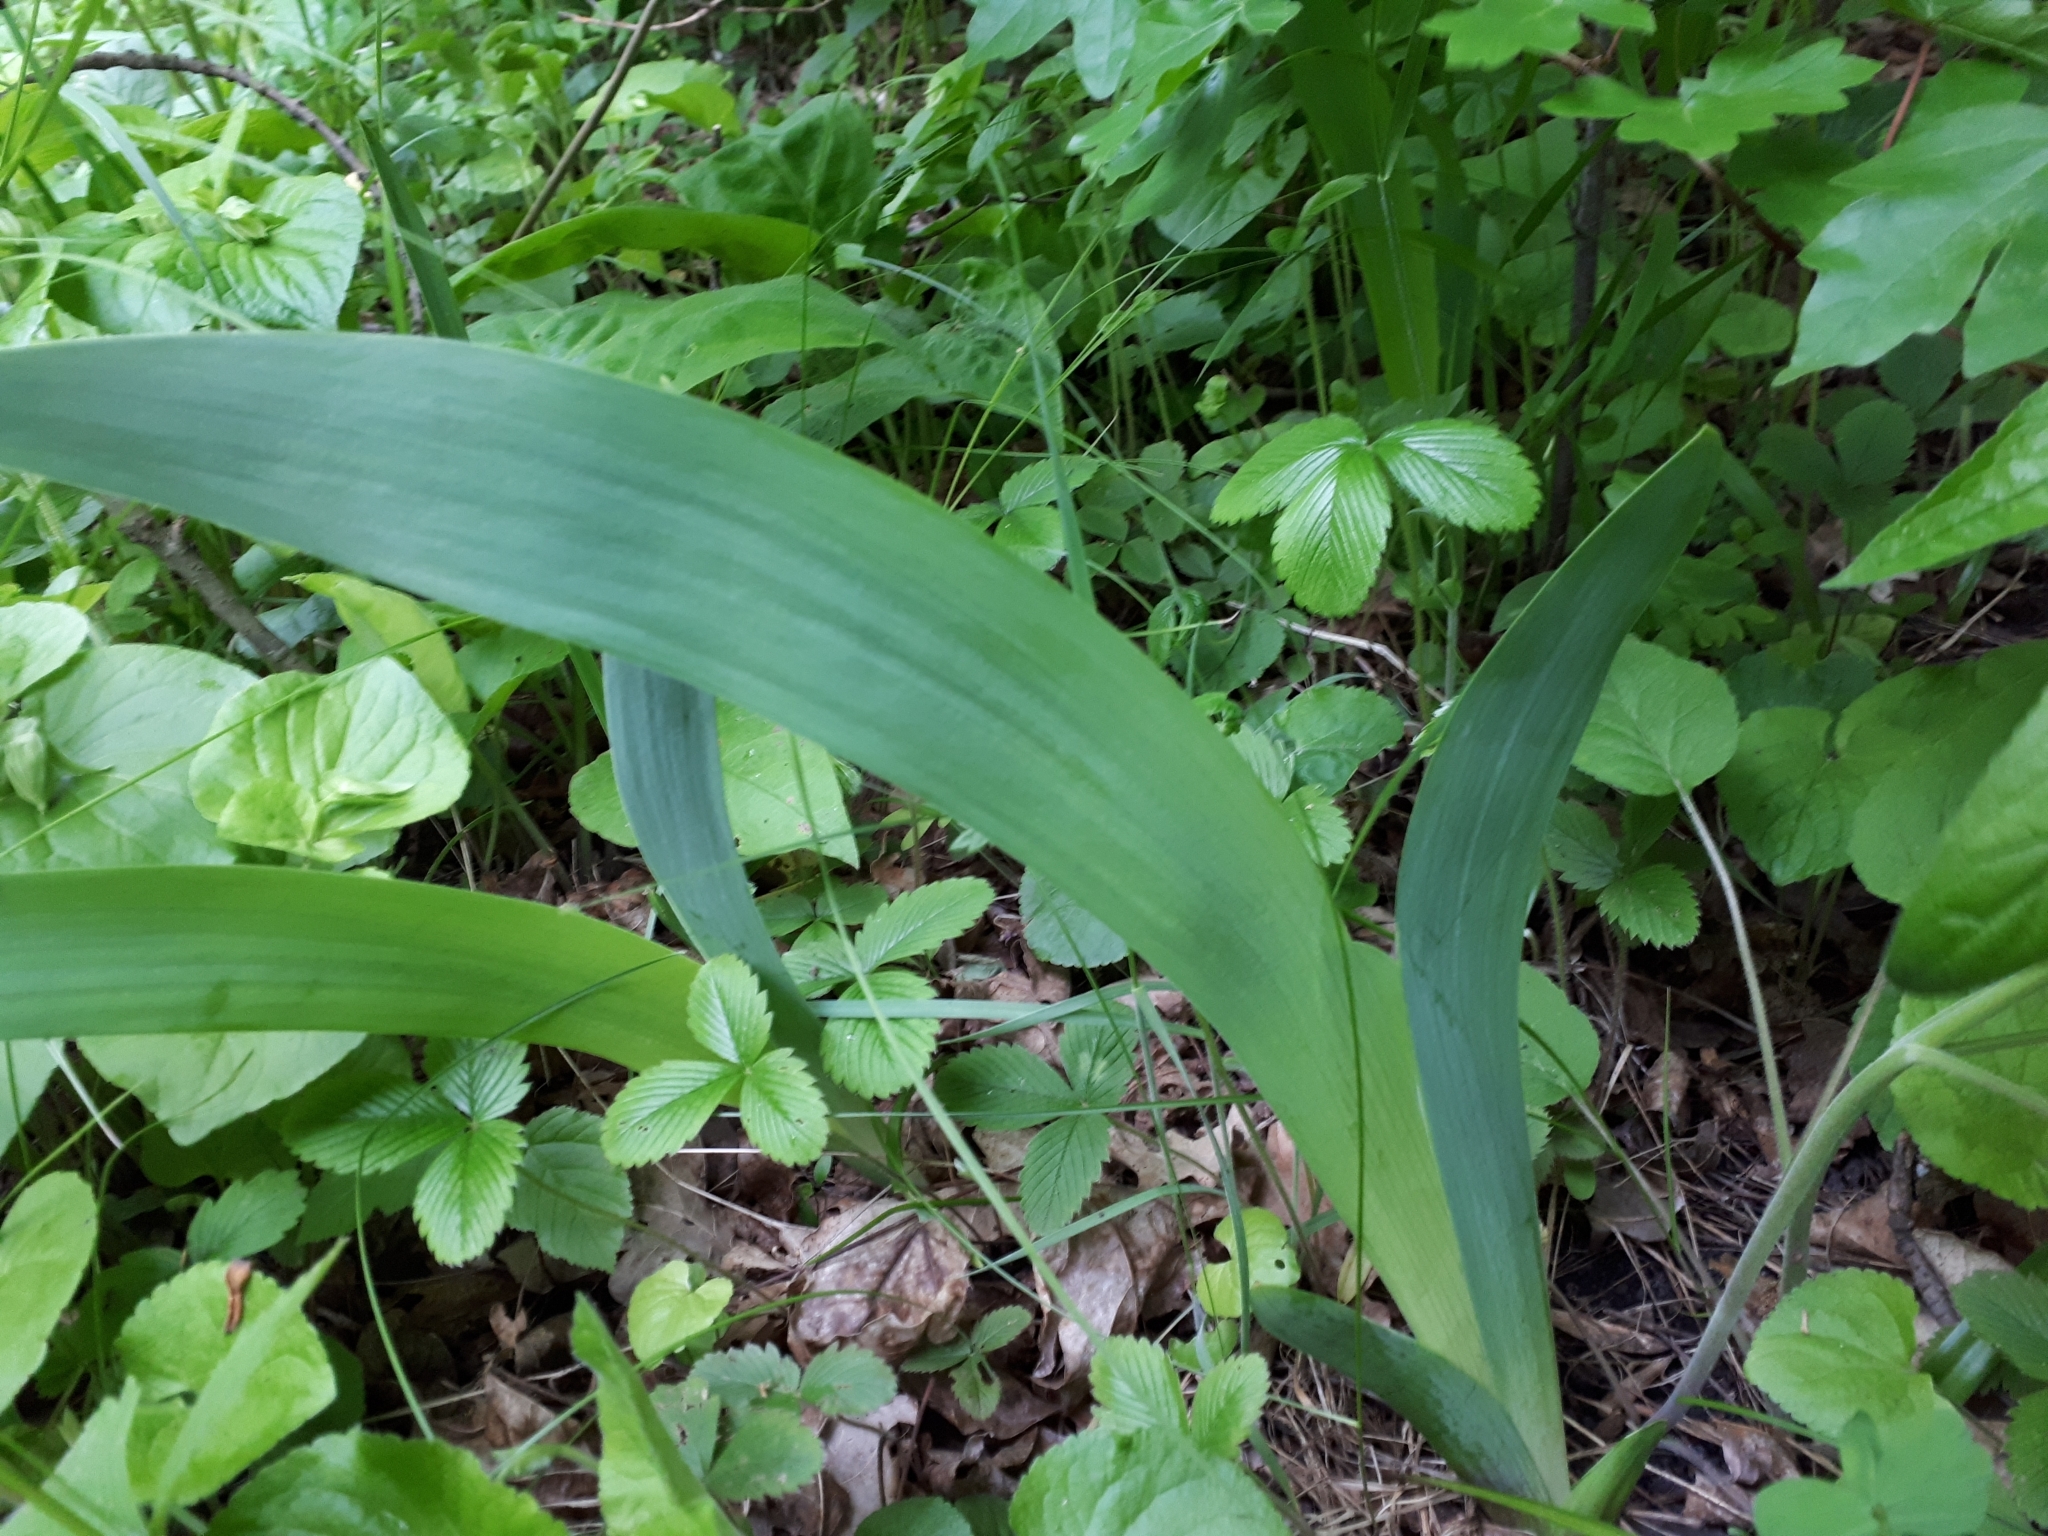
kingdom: Plantae
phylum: Tracheophyta
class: Liliopsida
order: Asparagales
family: Iridaceae
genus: Iris
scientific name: Iris aphylla
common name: Stool iris
